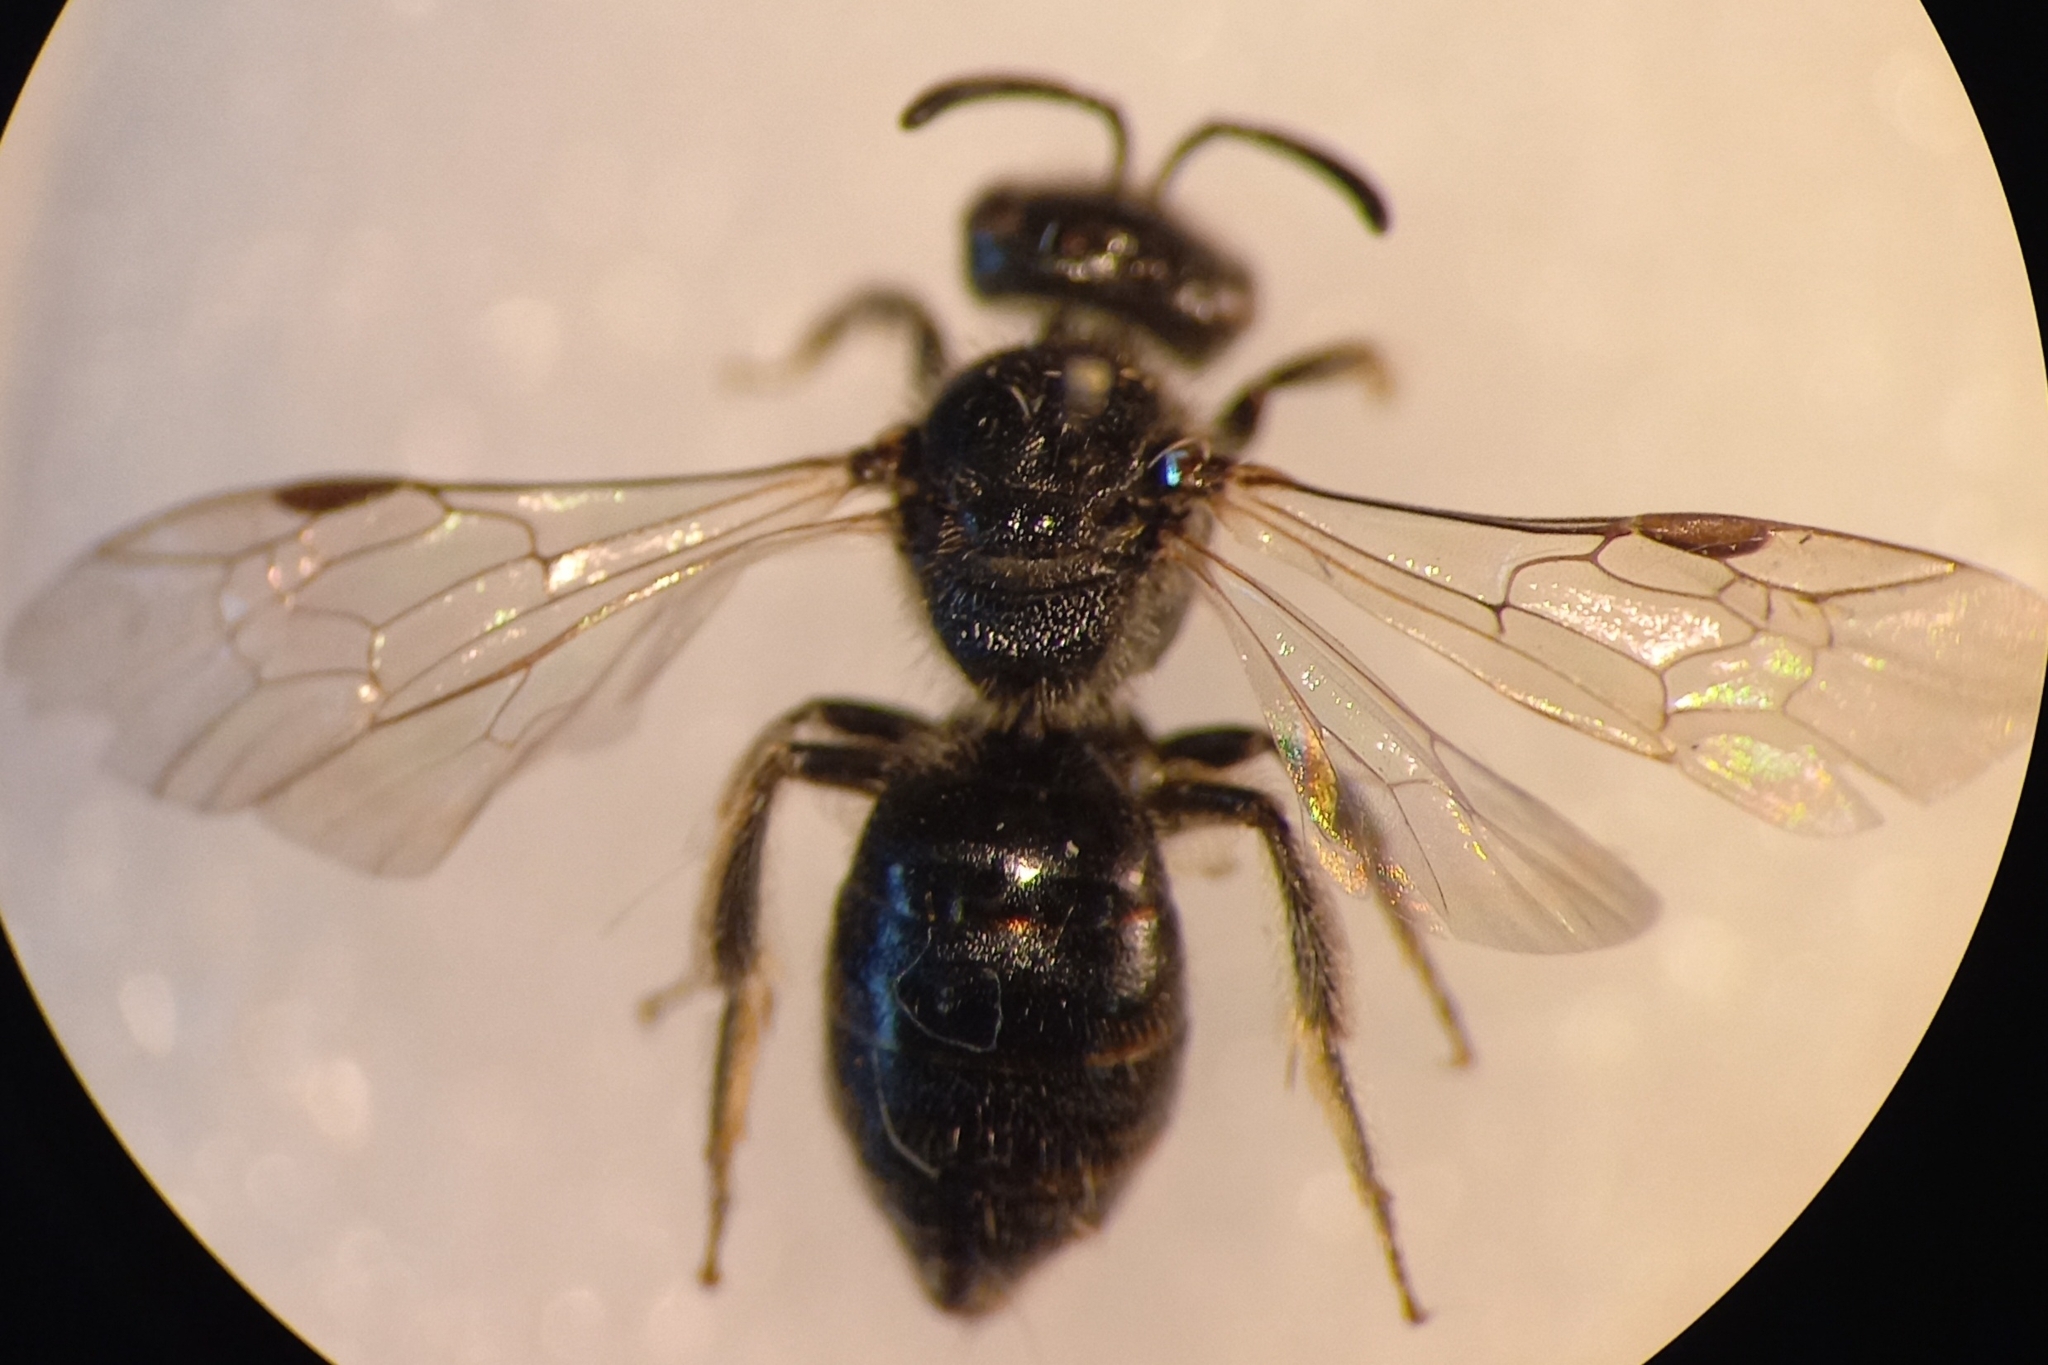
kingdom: Animalia
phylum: Arthropoda
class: Insecta
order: Hymenoptera
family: Halictidae
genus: Lasioglossum
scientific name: Lasioglossum pygmaeum
